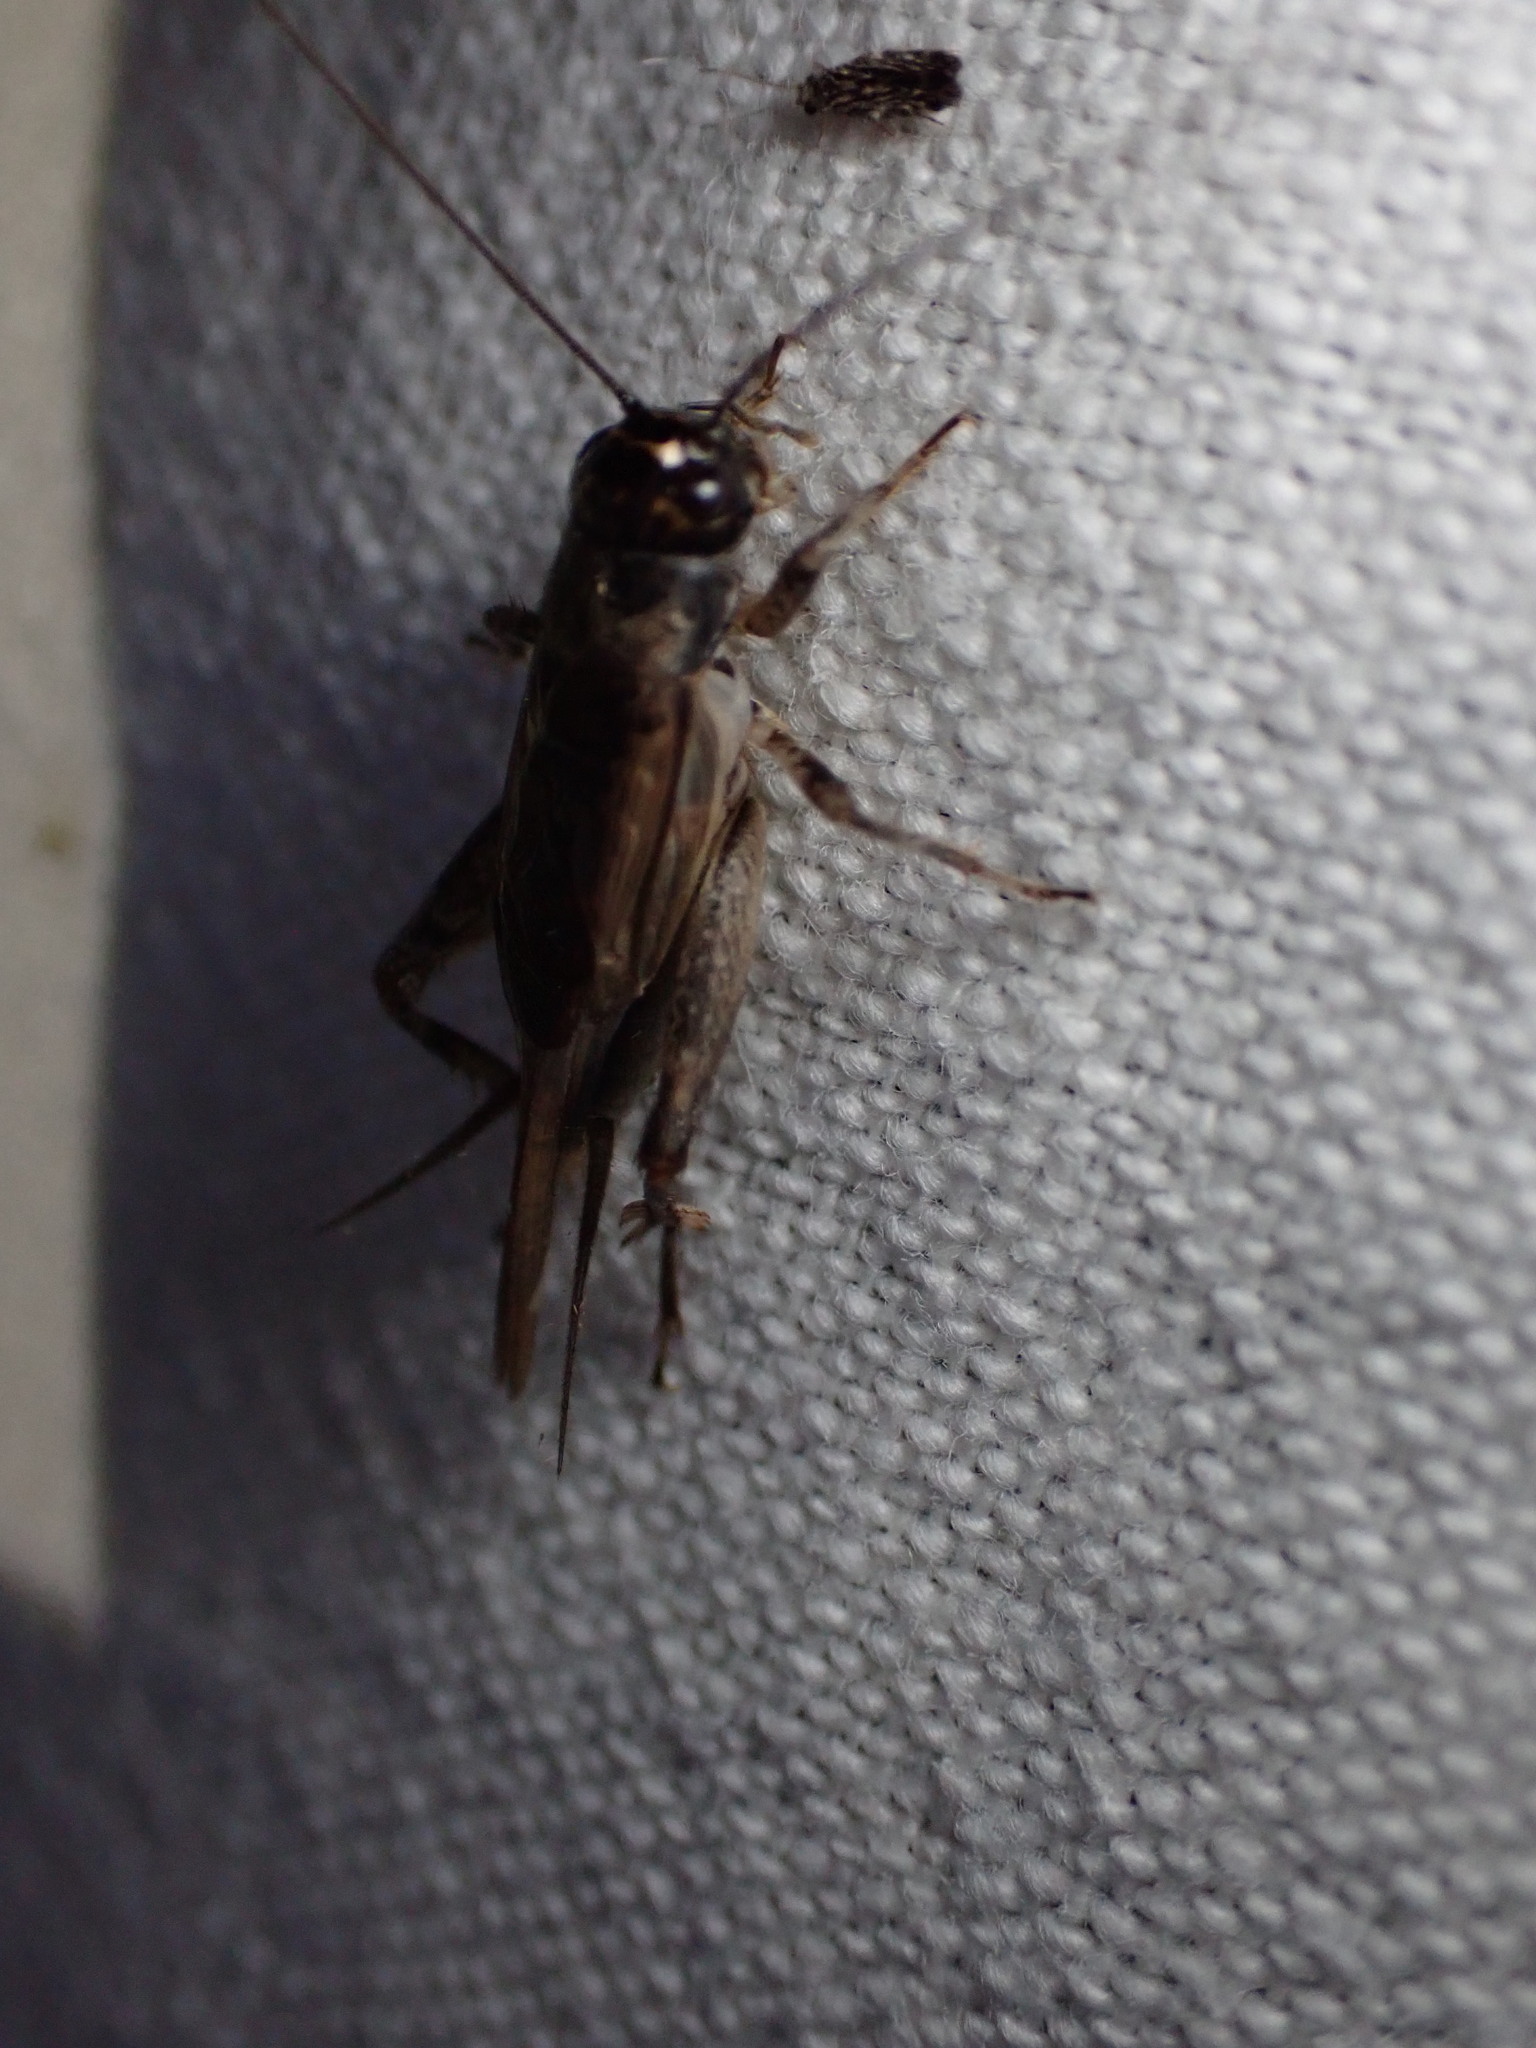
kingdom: Animalia
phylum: Arthropoda
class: Insecta
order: Orthoptera
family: Gryllidae
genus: Eumodicogryllus
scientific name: Eumodicogryllus bordigalensis
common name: Bordeaux cricket
